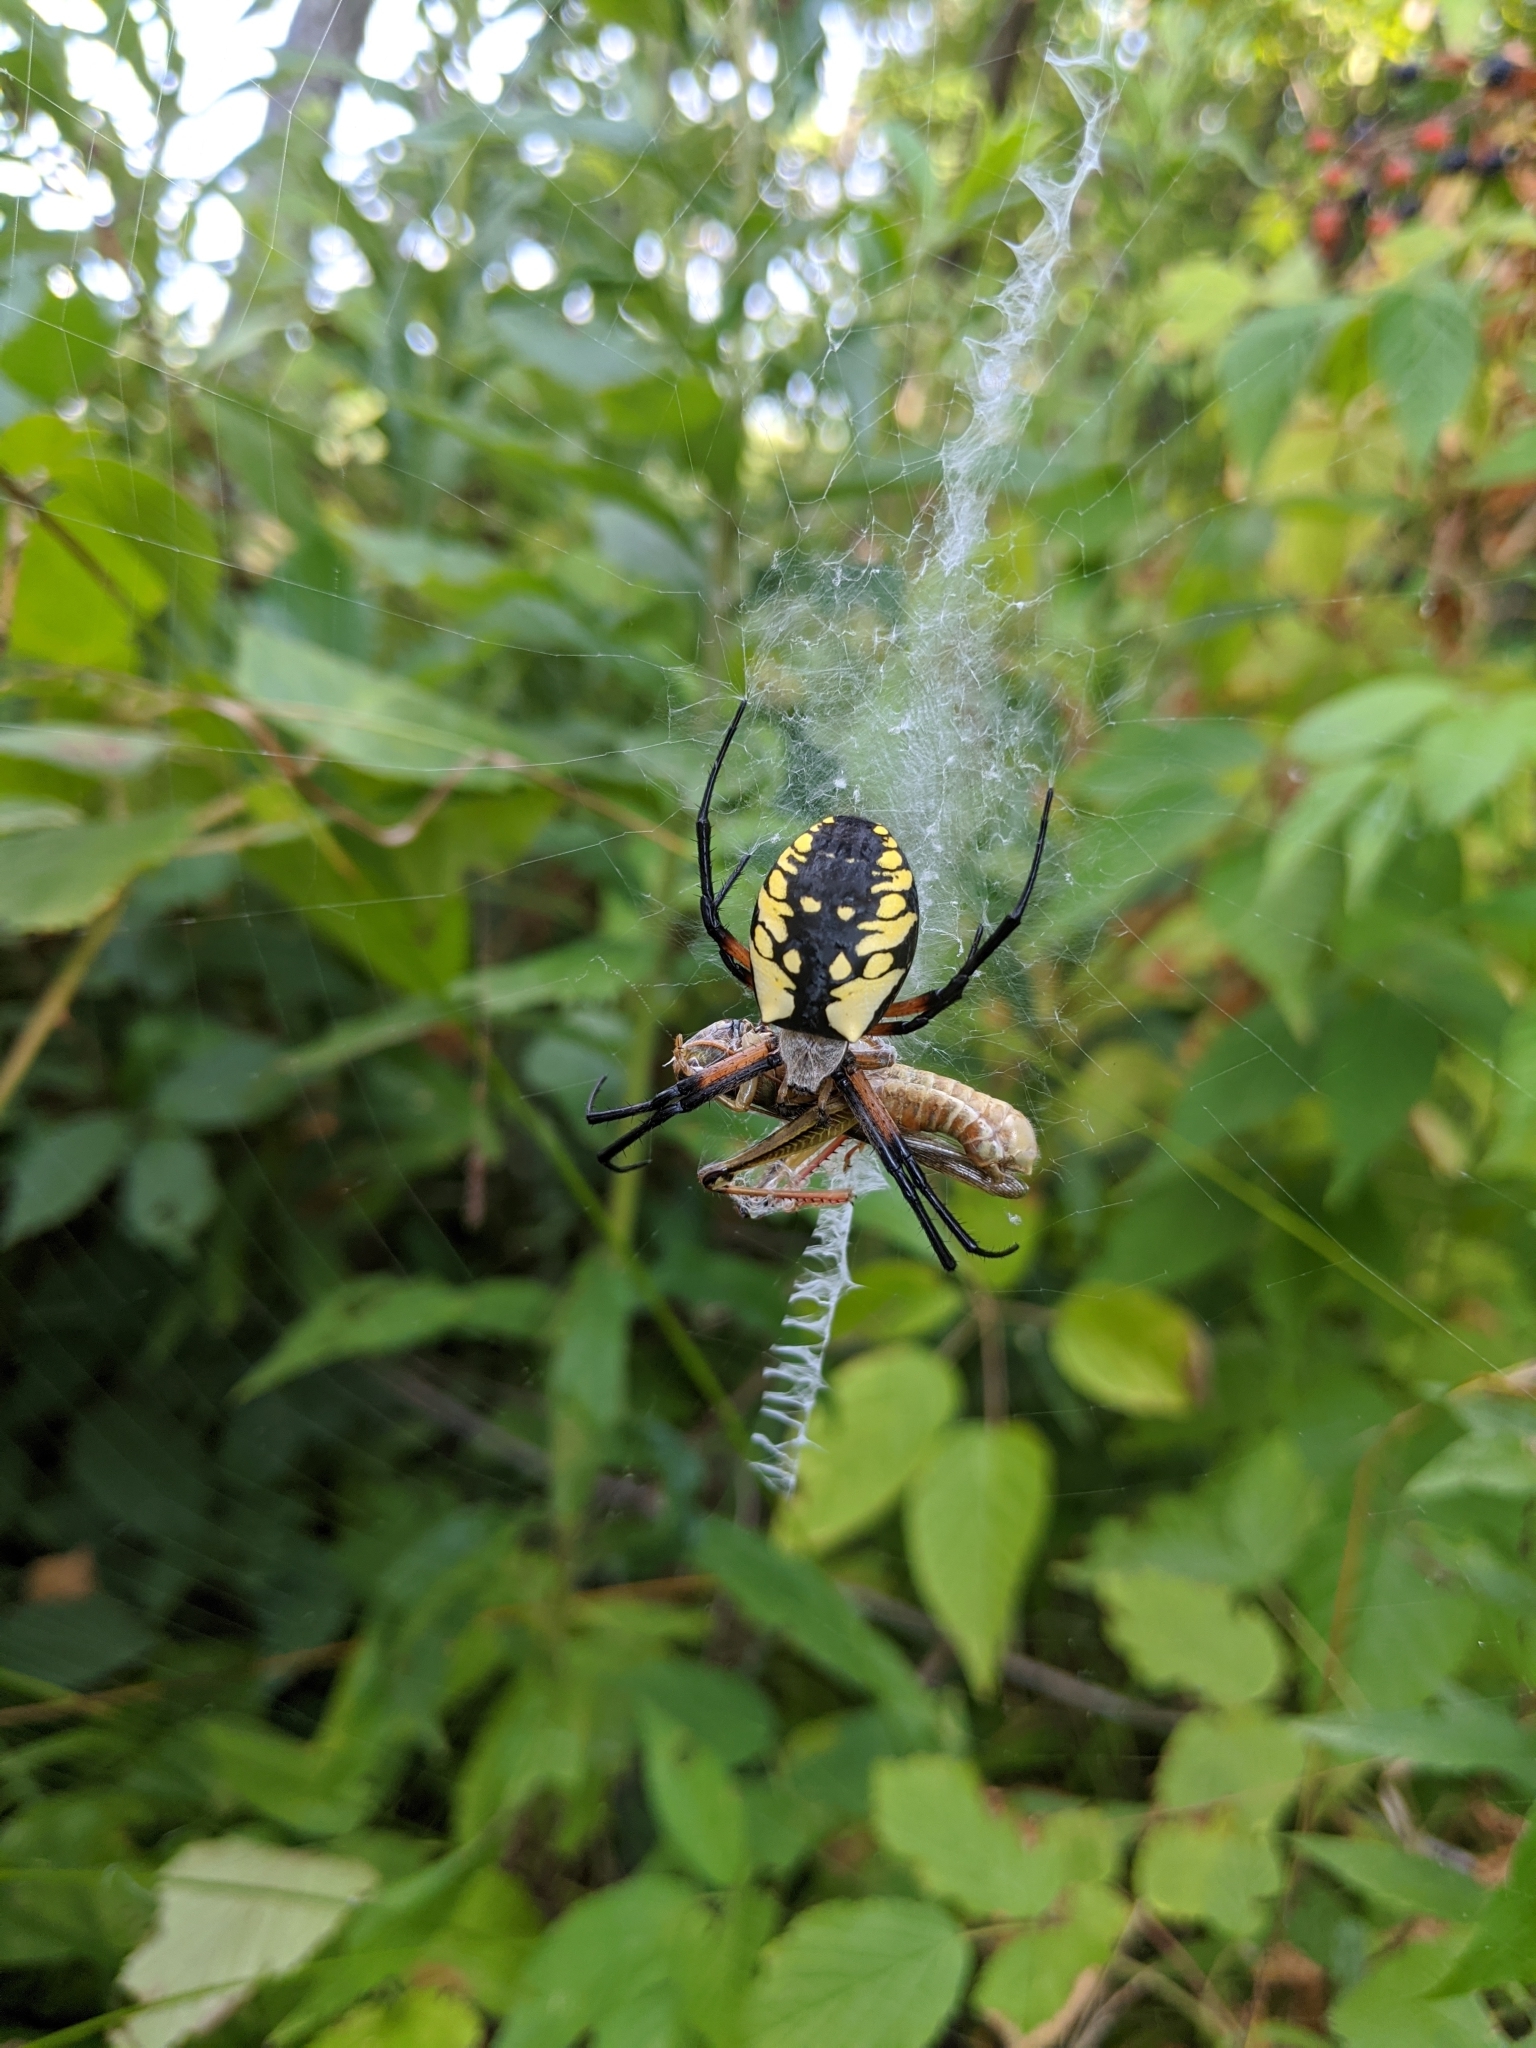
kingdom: Animalia
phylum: Arthropoda
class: Arachnida
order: Araneae
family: Araneidae
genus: Argiope
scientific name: Argiope aurantia
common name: Orb weavers
